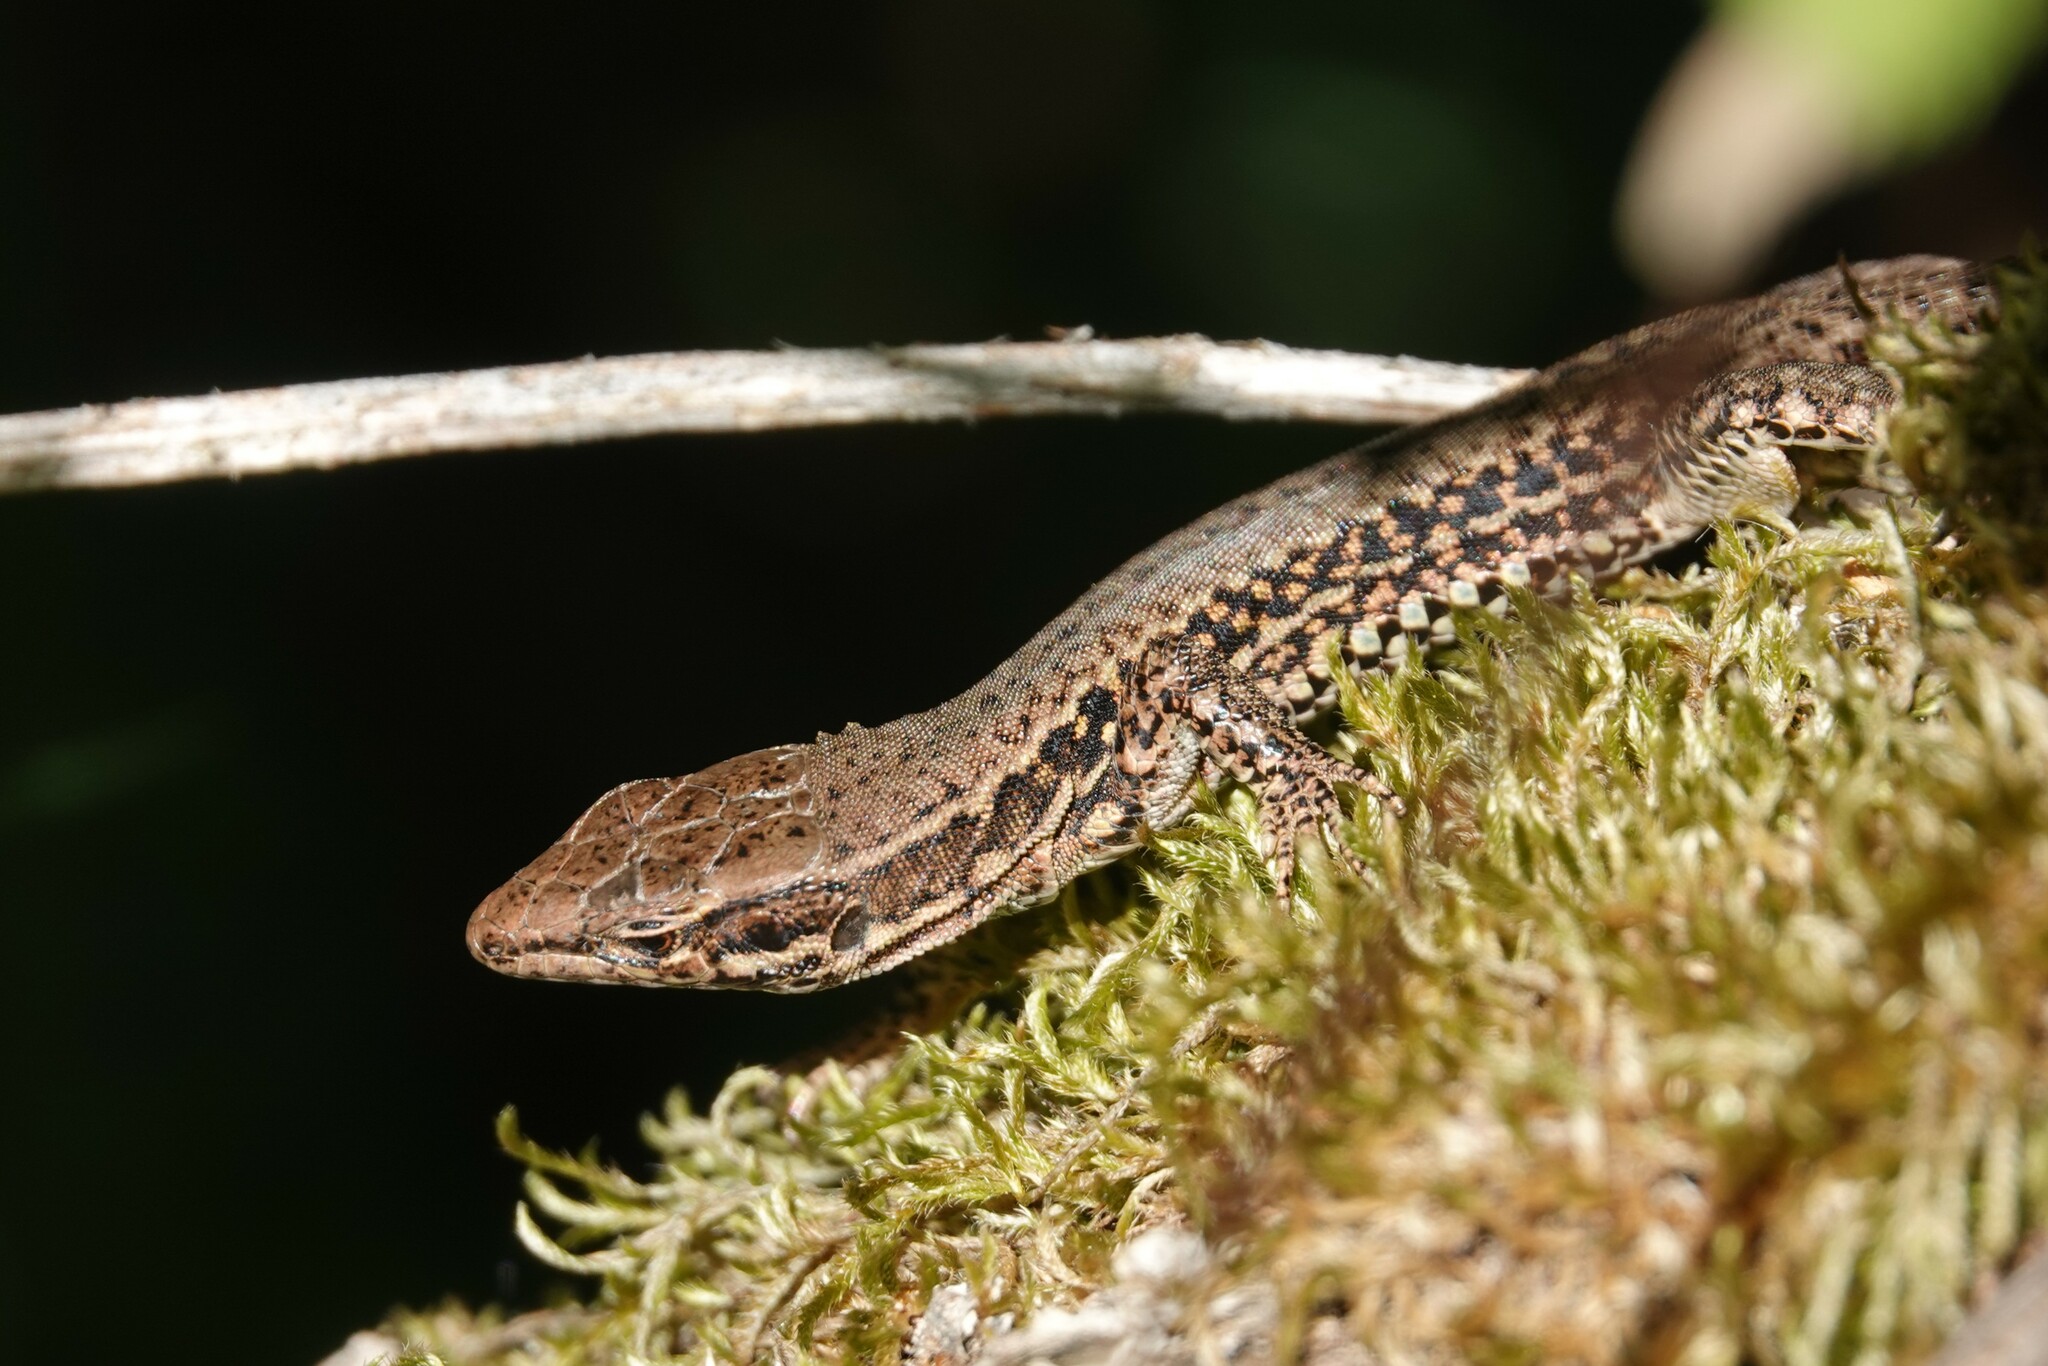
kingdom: Animalia
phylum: Chordata
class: Squamata
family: Lacertidae
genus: Podarcis
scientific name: Podarcis muralis
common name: Common wall lizard
